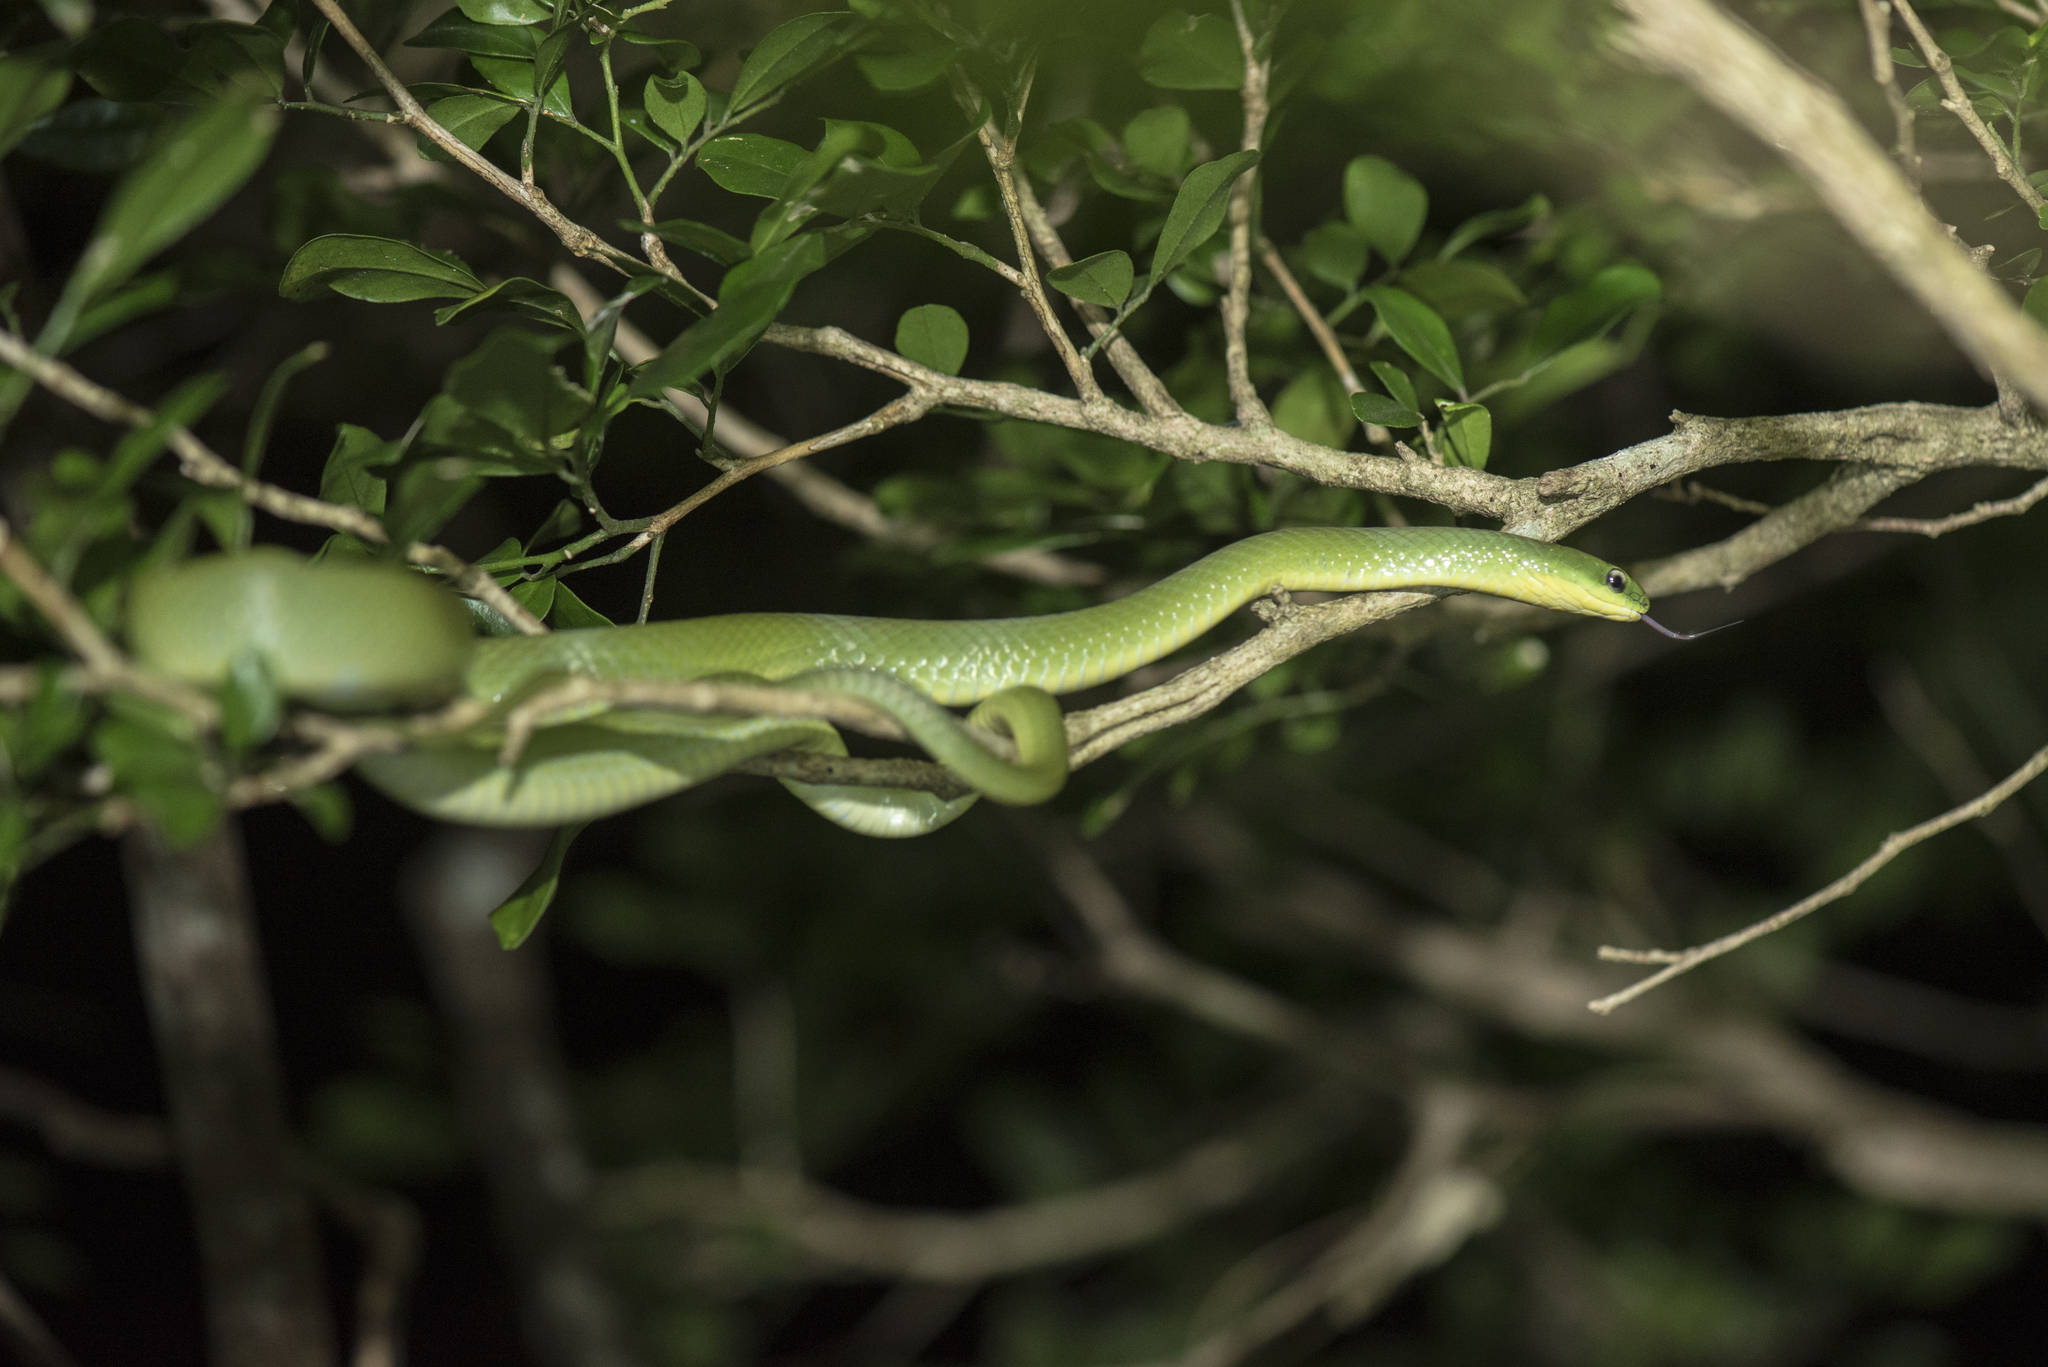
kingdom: Animalia
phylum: Chordata
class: Squamata
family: Colubridae
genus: Ptyas
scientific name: Ptyas major
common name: Chinese green snake
